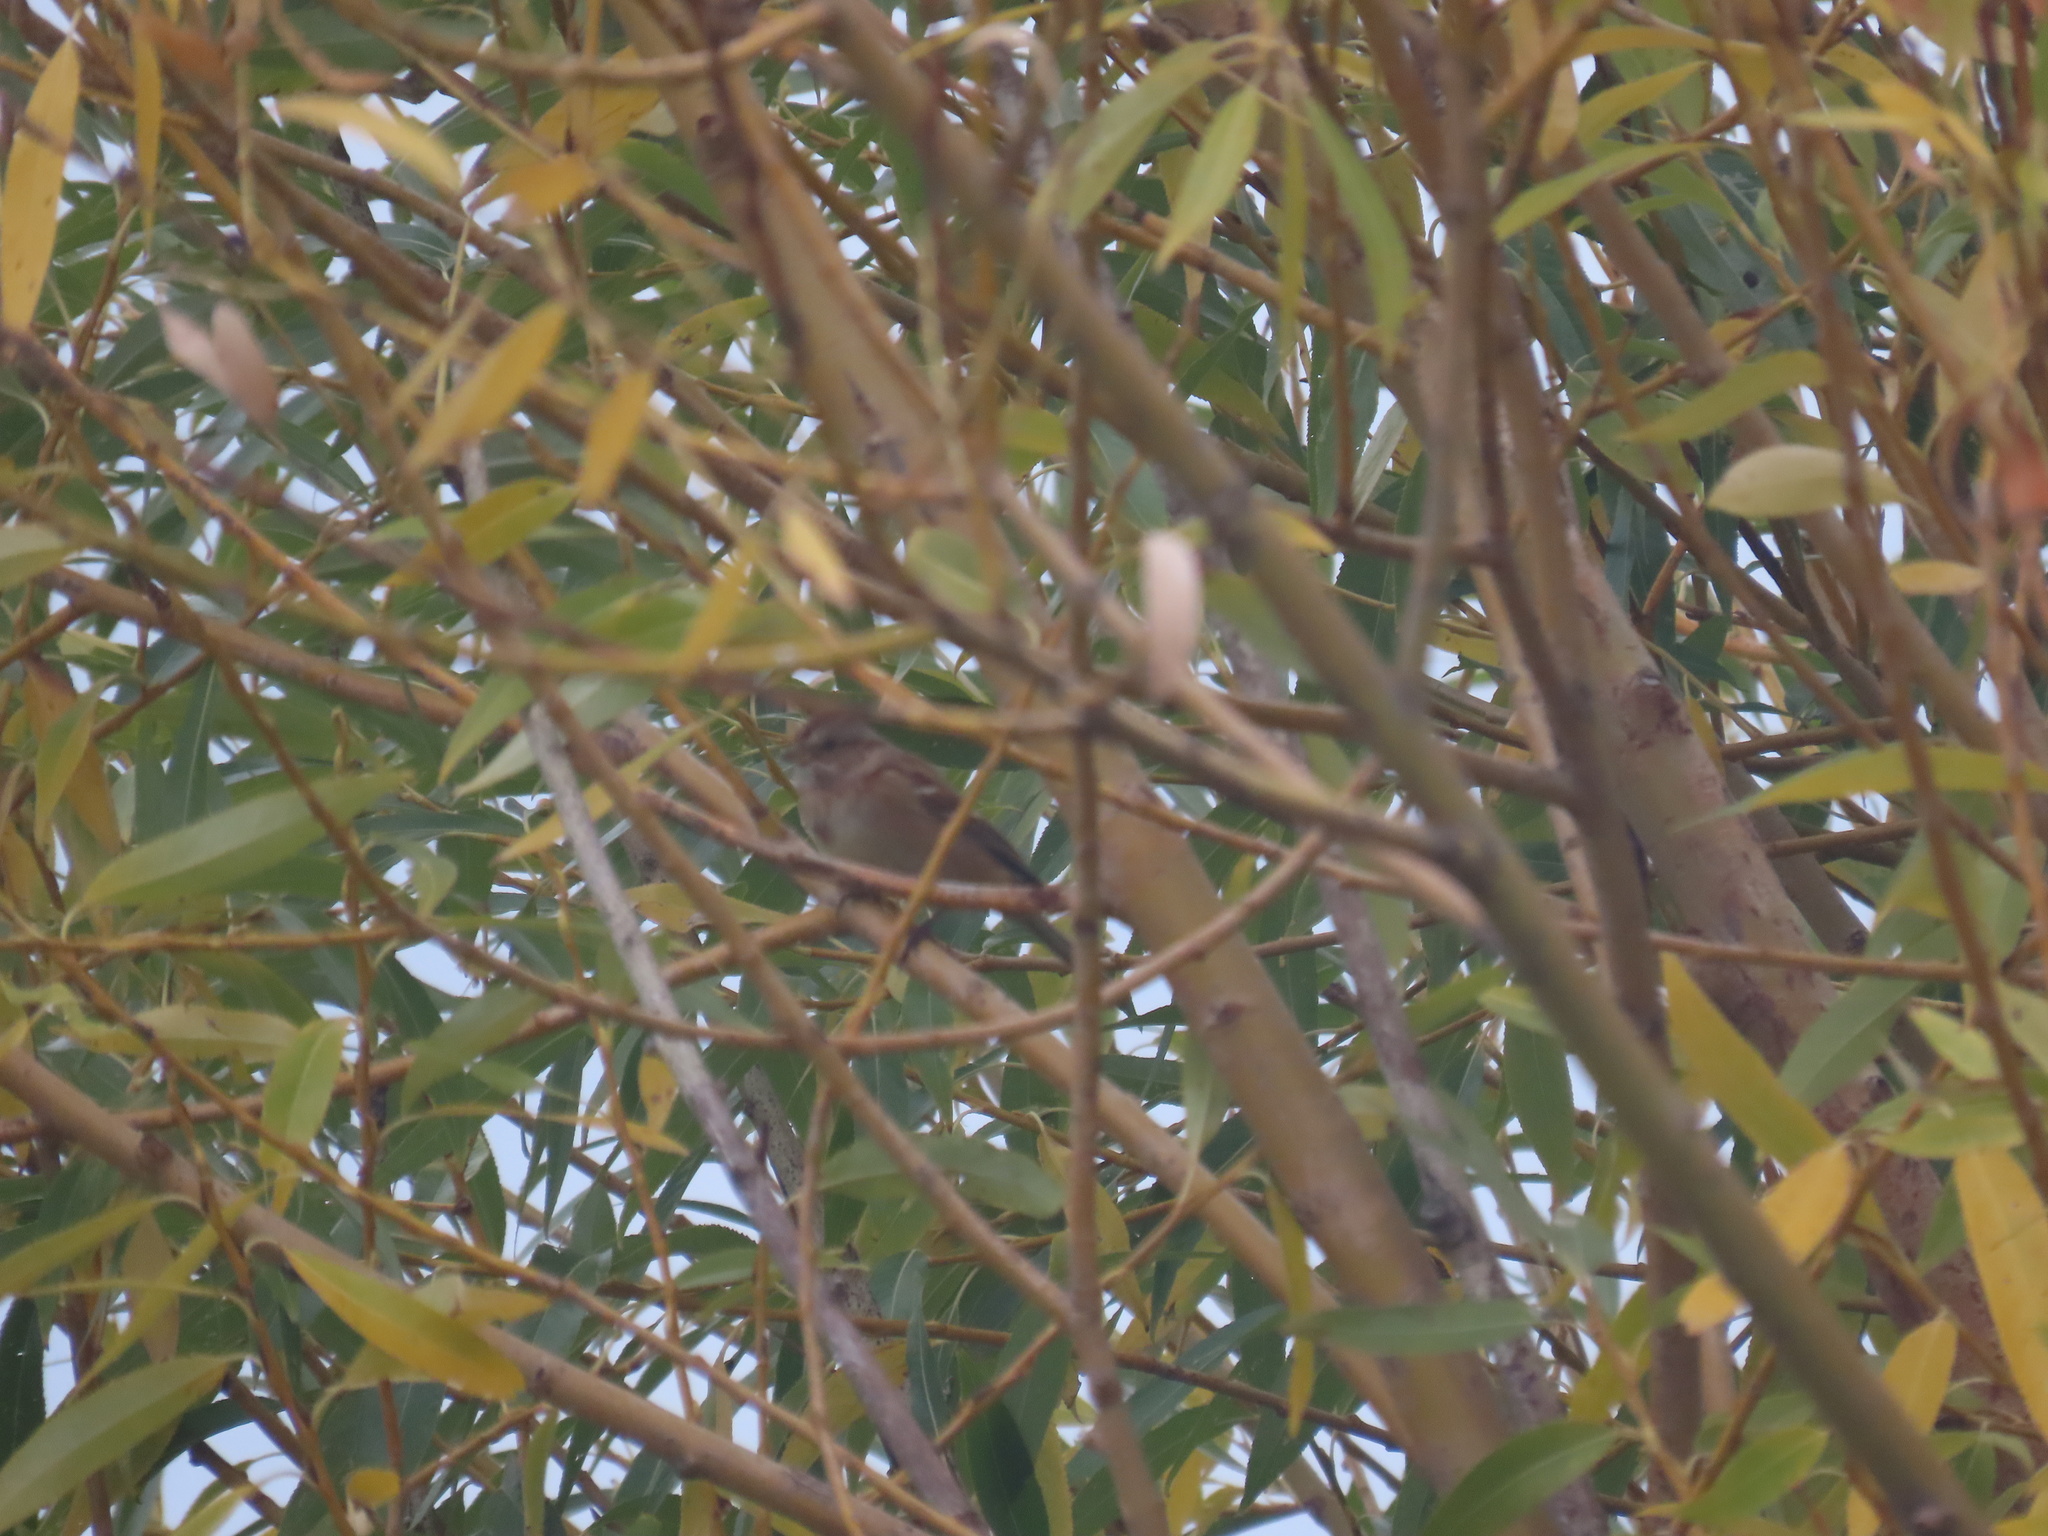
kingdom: Animalia
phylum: Chordata
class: Aves
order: Passeriformes
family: Passerellidae
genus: Spizelloides
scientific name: Spizelloides arborea
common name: American tree sparrow
